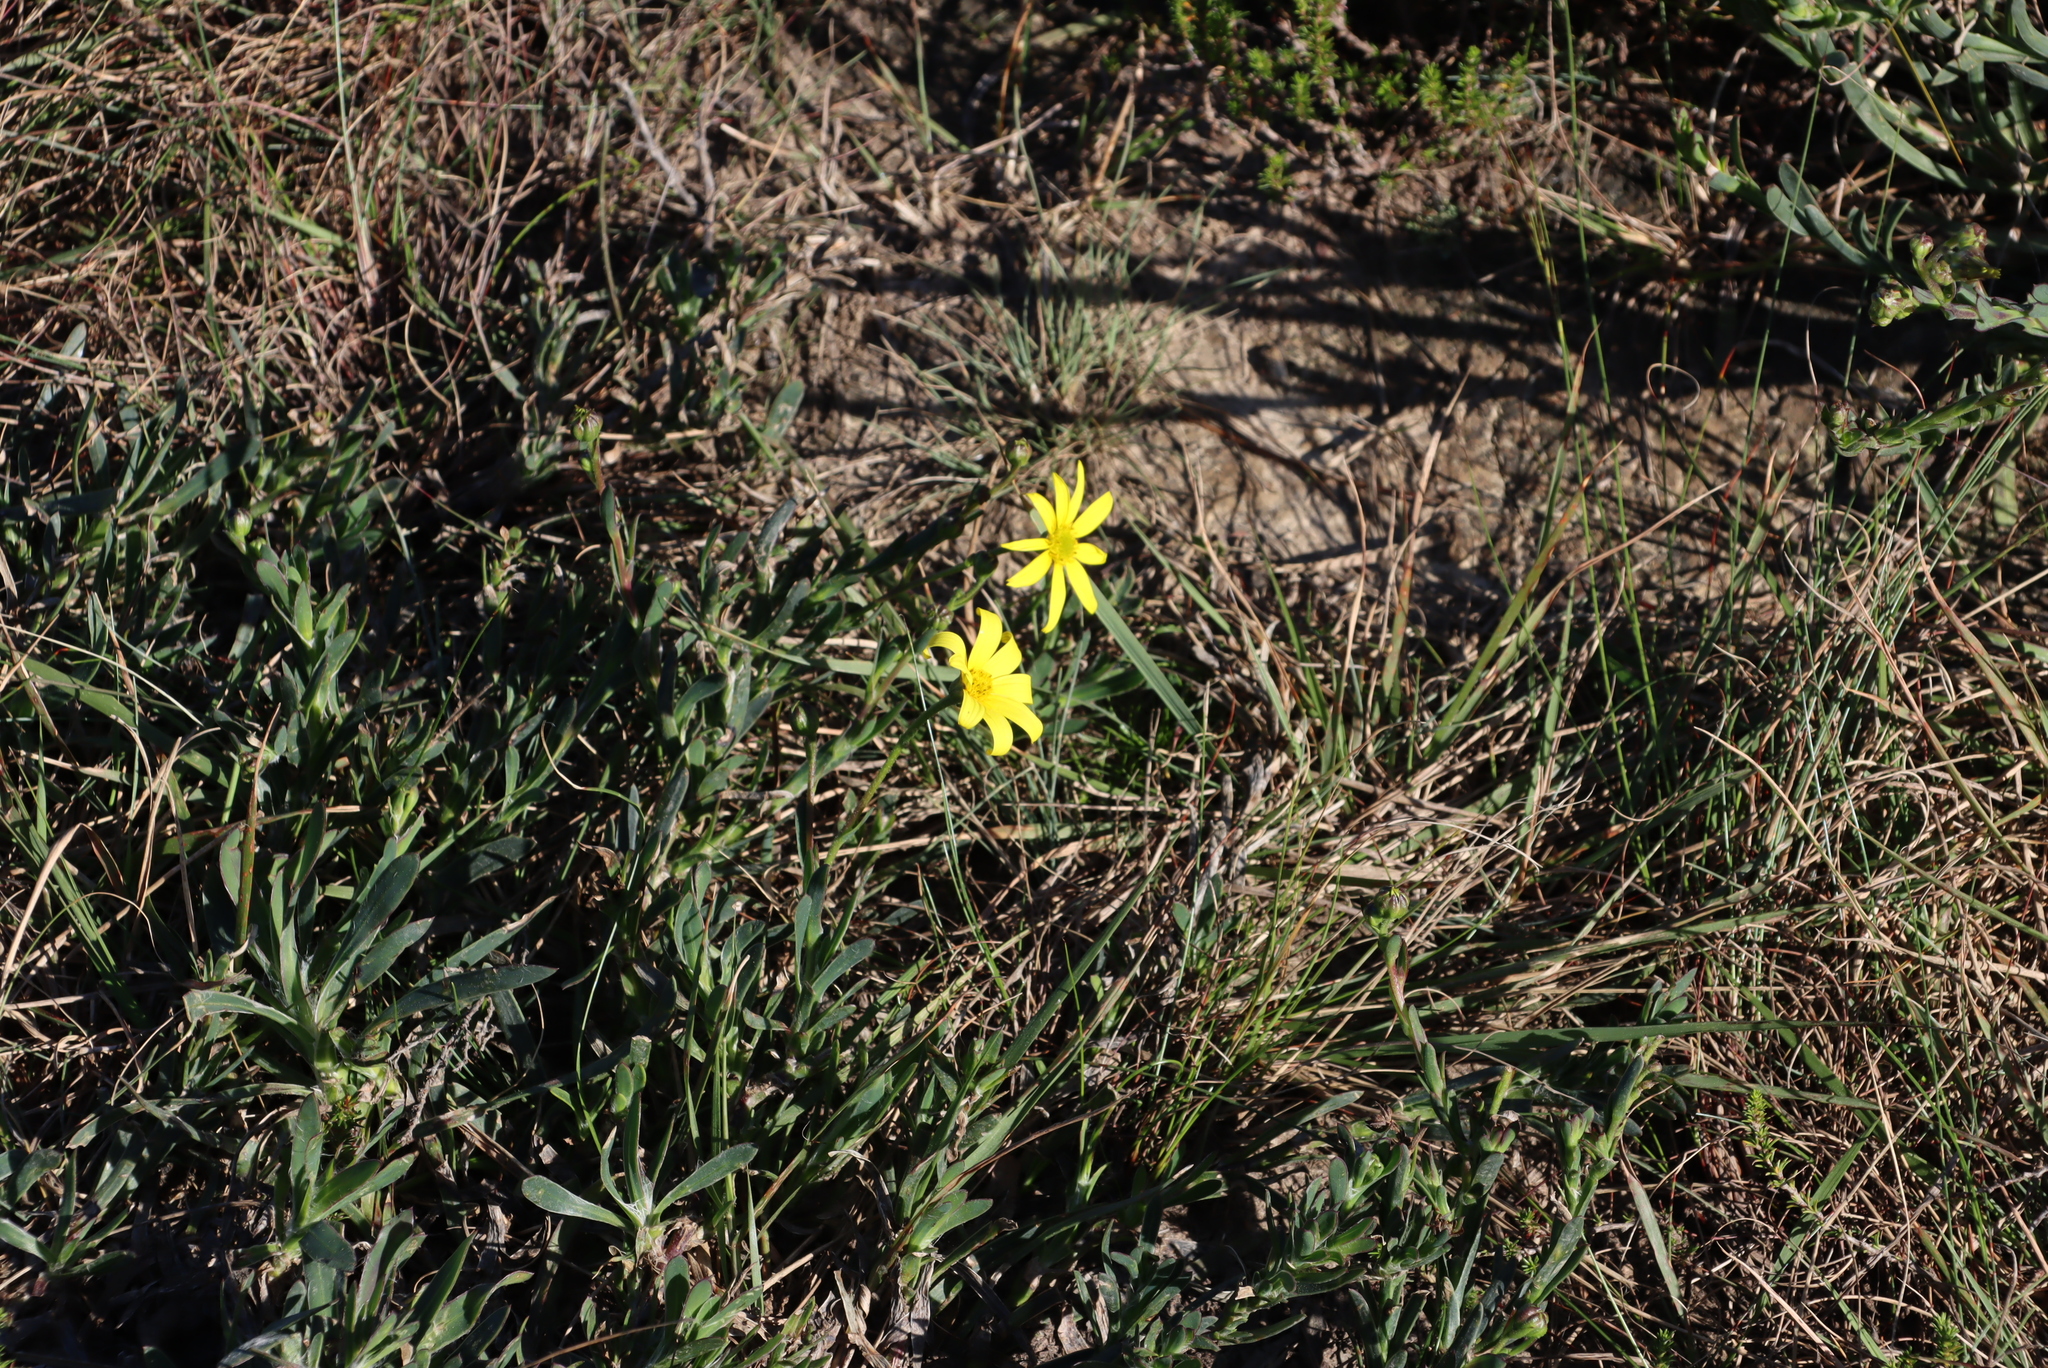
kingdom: Plantae
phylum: Tracheophyta
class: Magnoliopsida
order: Asterales
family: Asteraceae
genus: Osteospermum
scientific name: Osteospermum polygaloides
